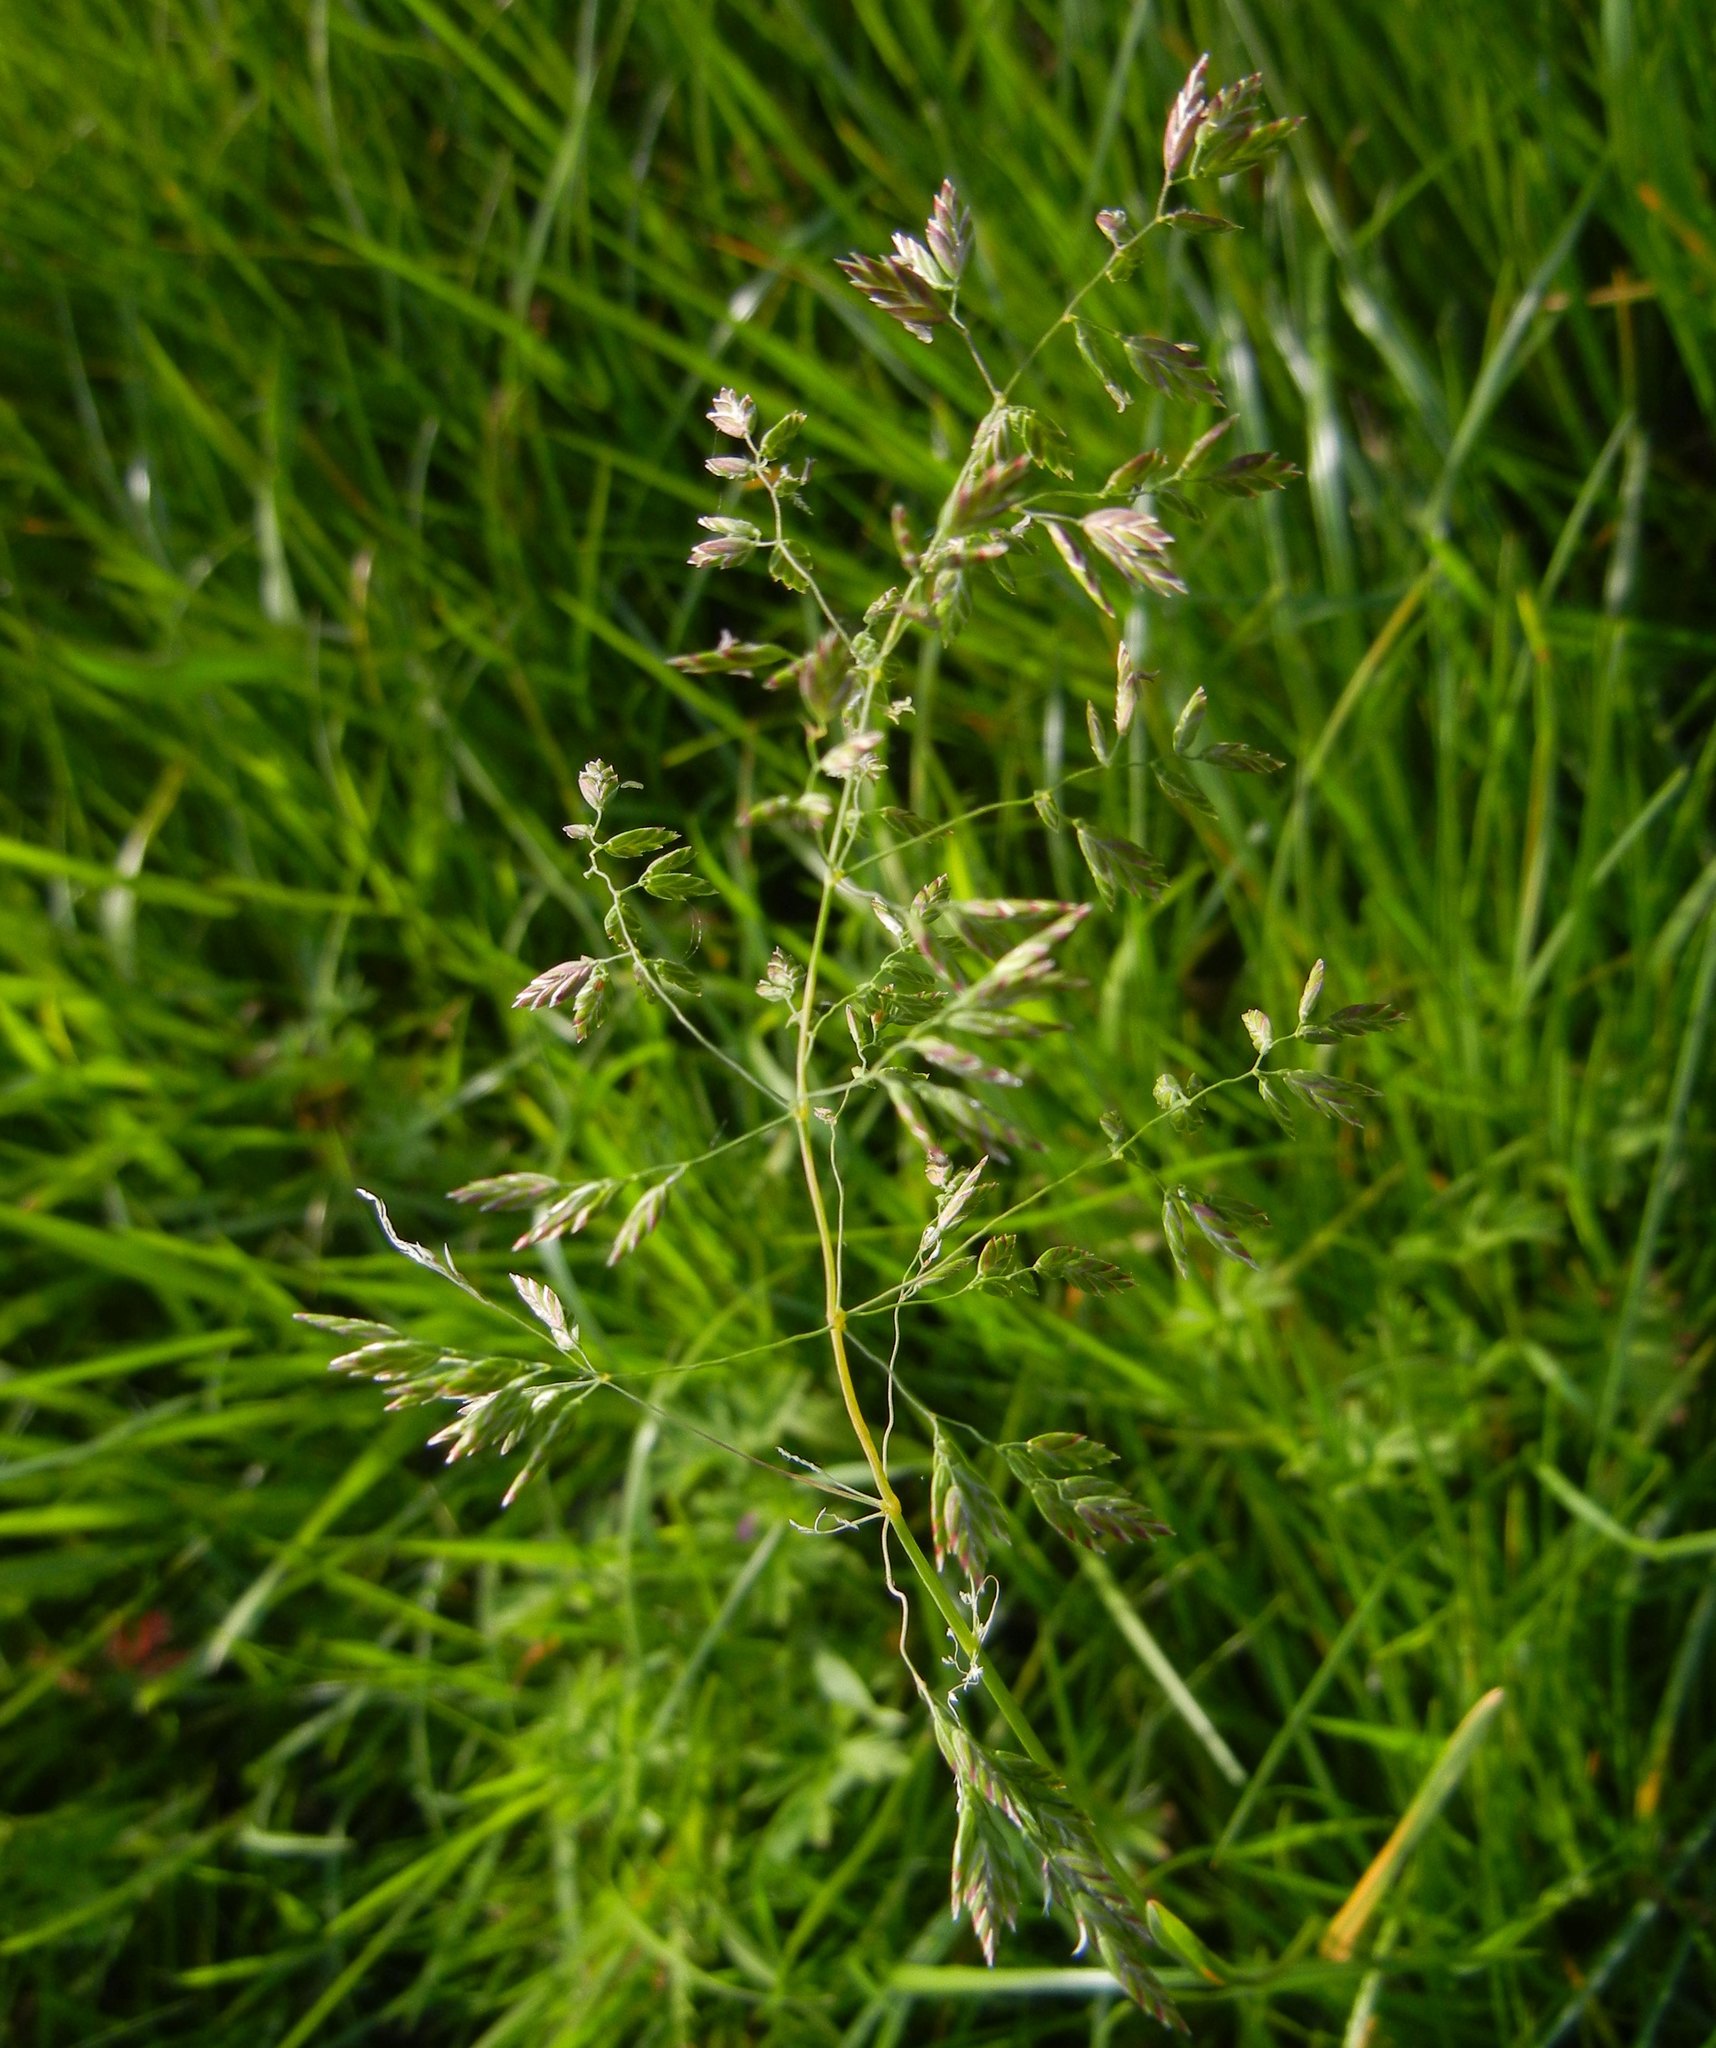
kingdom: Plantae
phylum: Tracheophyta
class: Liliopsida
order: Poales
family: Poaceae
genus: Poa
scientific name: Poa pratensis
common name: Kentucky bluegrass
